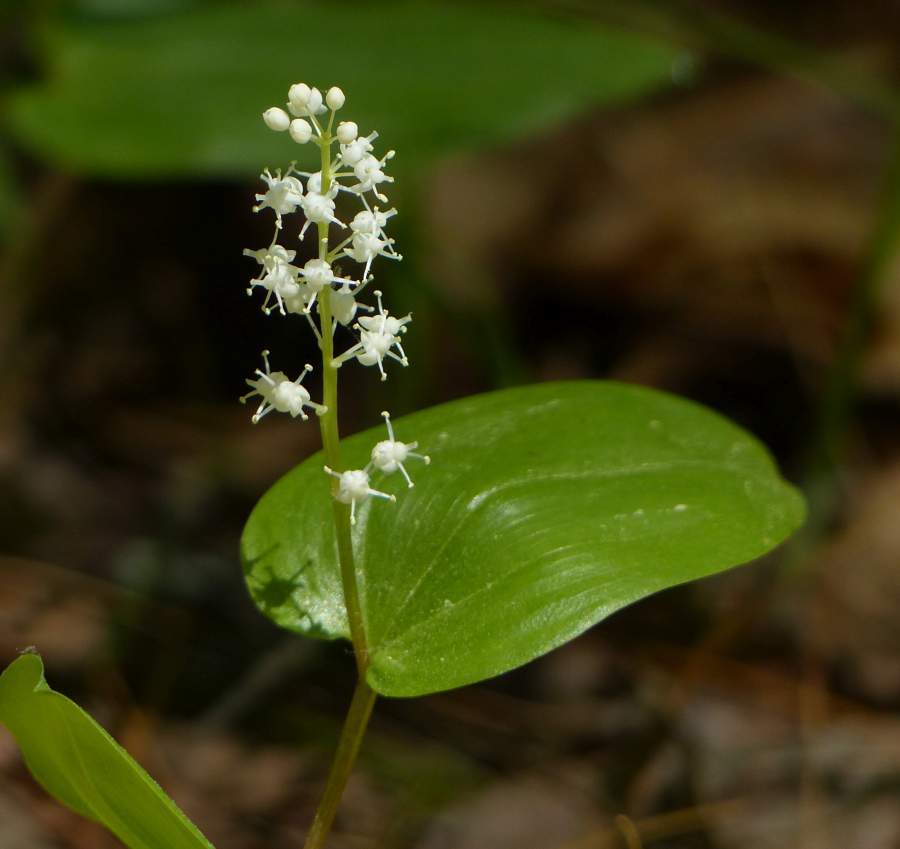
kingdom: Plantae
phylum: Tracheophyta
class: Liliopsida
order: Asparagales
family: Asparagaceae
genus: Maianthemum
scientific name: Maianthemum canadense
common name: False lily-of-the-valley
